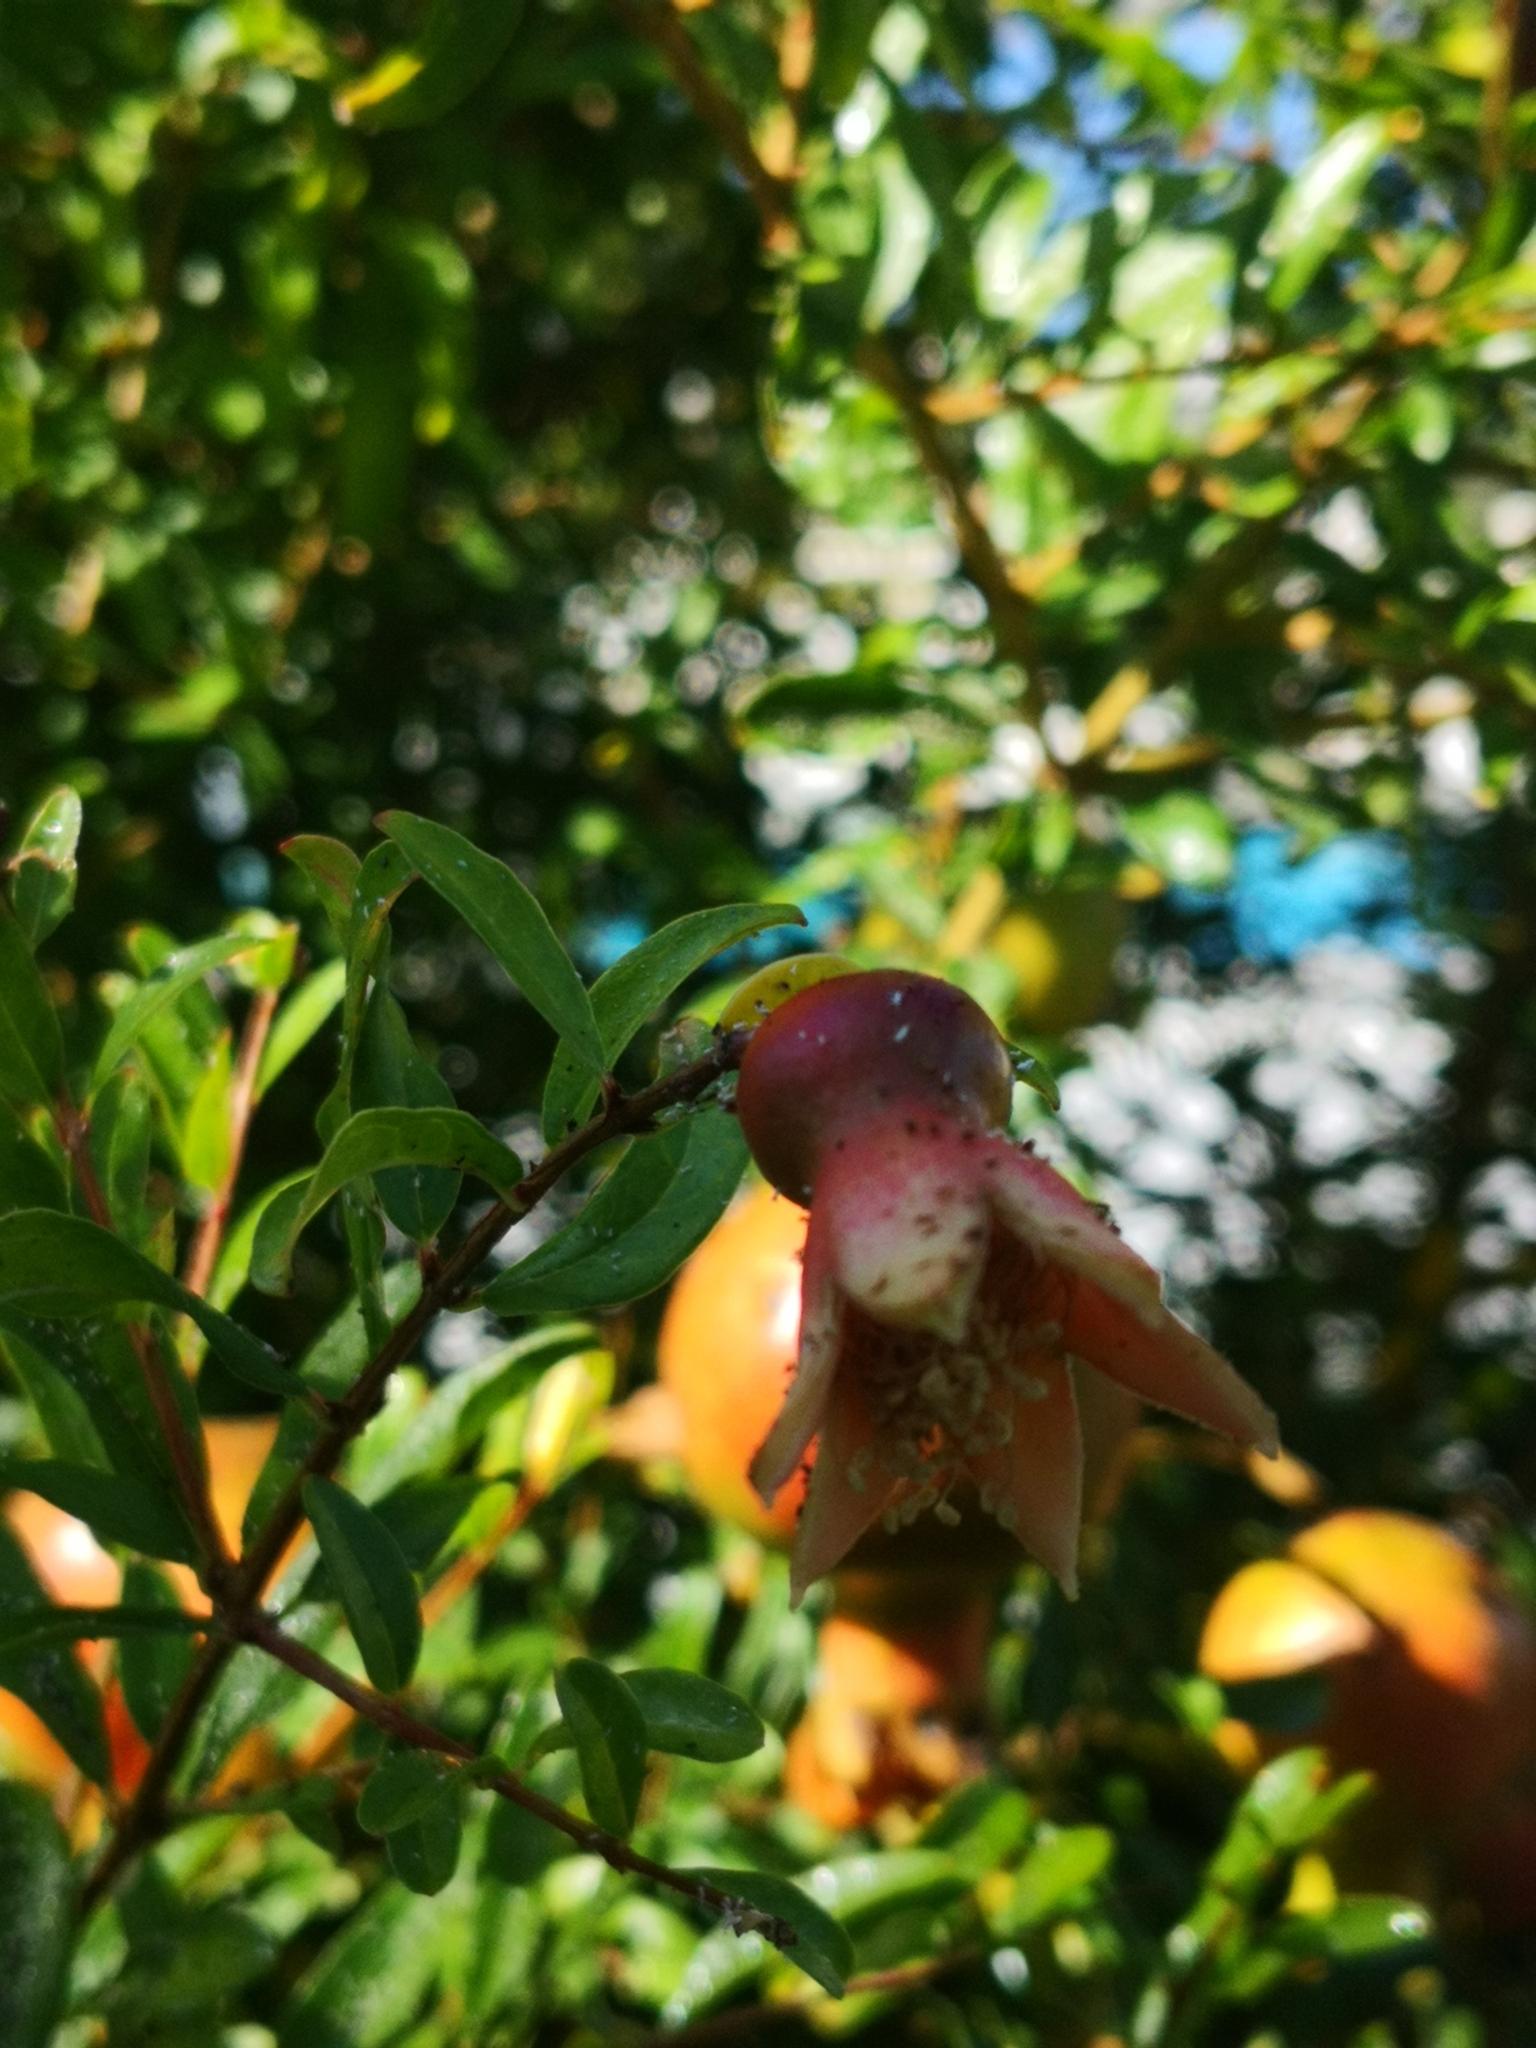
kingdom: Plantae
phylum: Tracheophyta
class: Magnoliopsida
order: Myrtales
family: Lythraceae
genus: Punica
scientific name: Punica granatum
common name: Pomegranate
